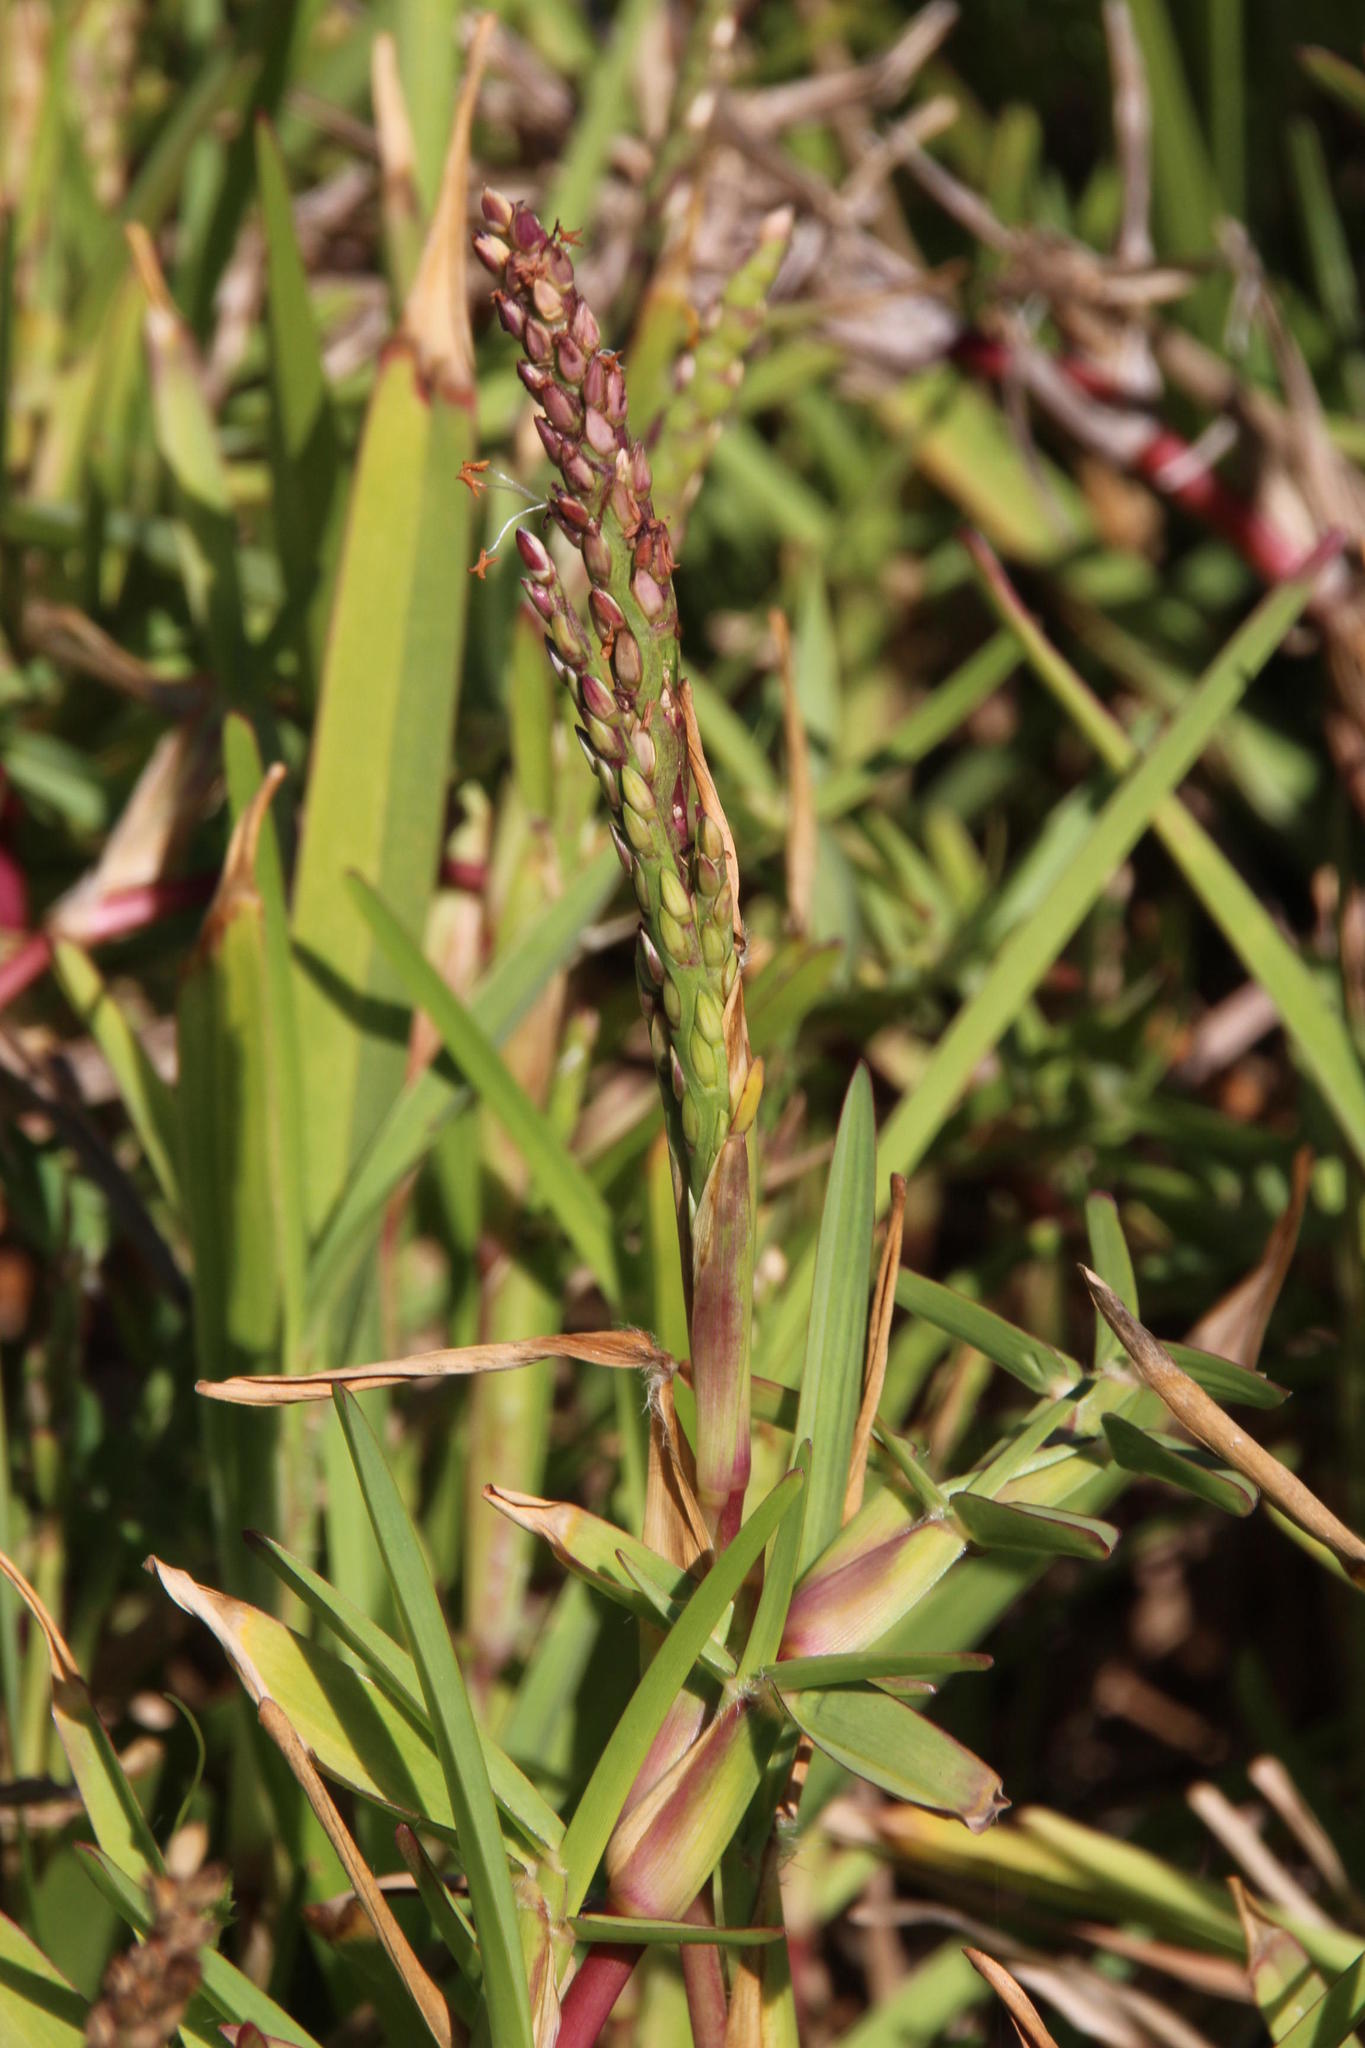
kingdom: Plantae
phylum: Tracheophyta
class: Liliopsida
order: Poales
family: Poaceae
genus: Stenotaphrum
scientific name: Stenotaphrum secundatum
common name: St. augustine grass
